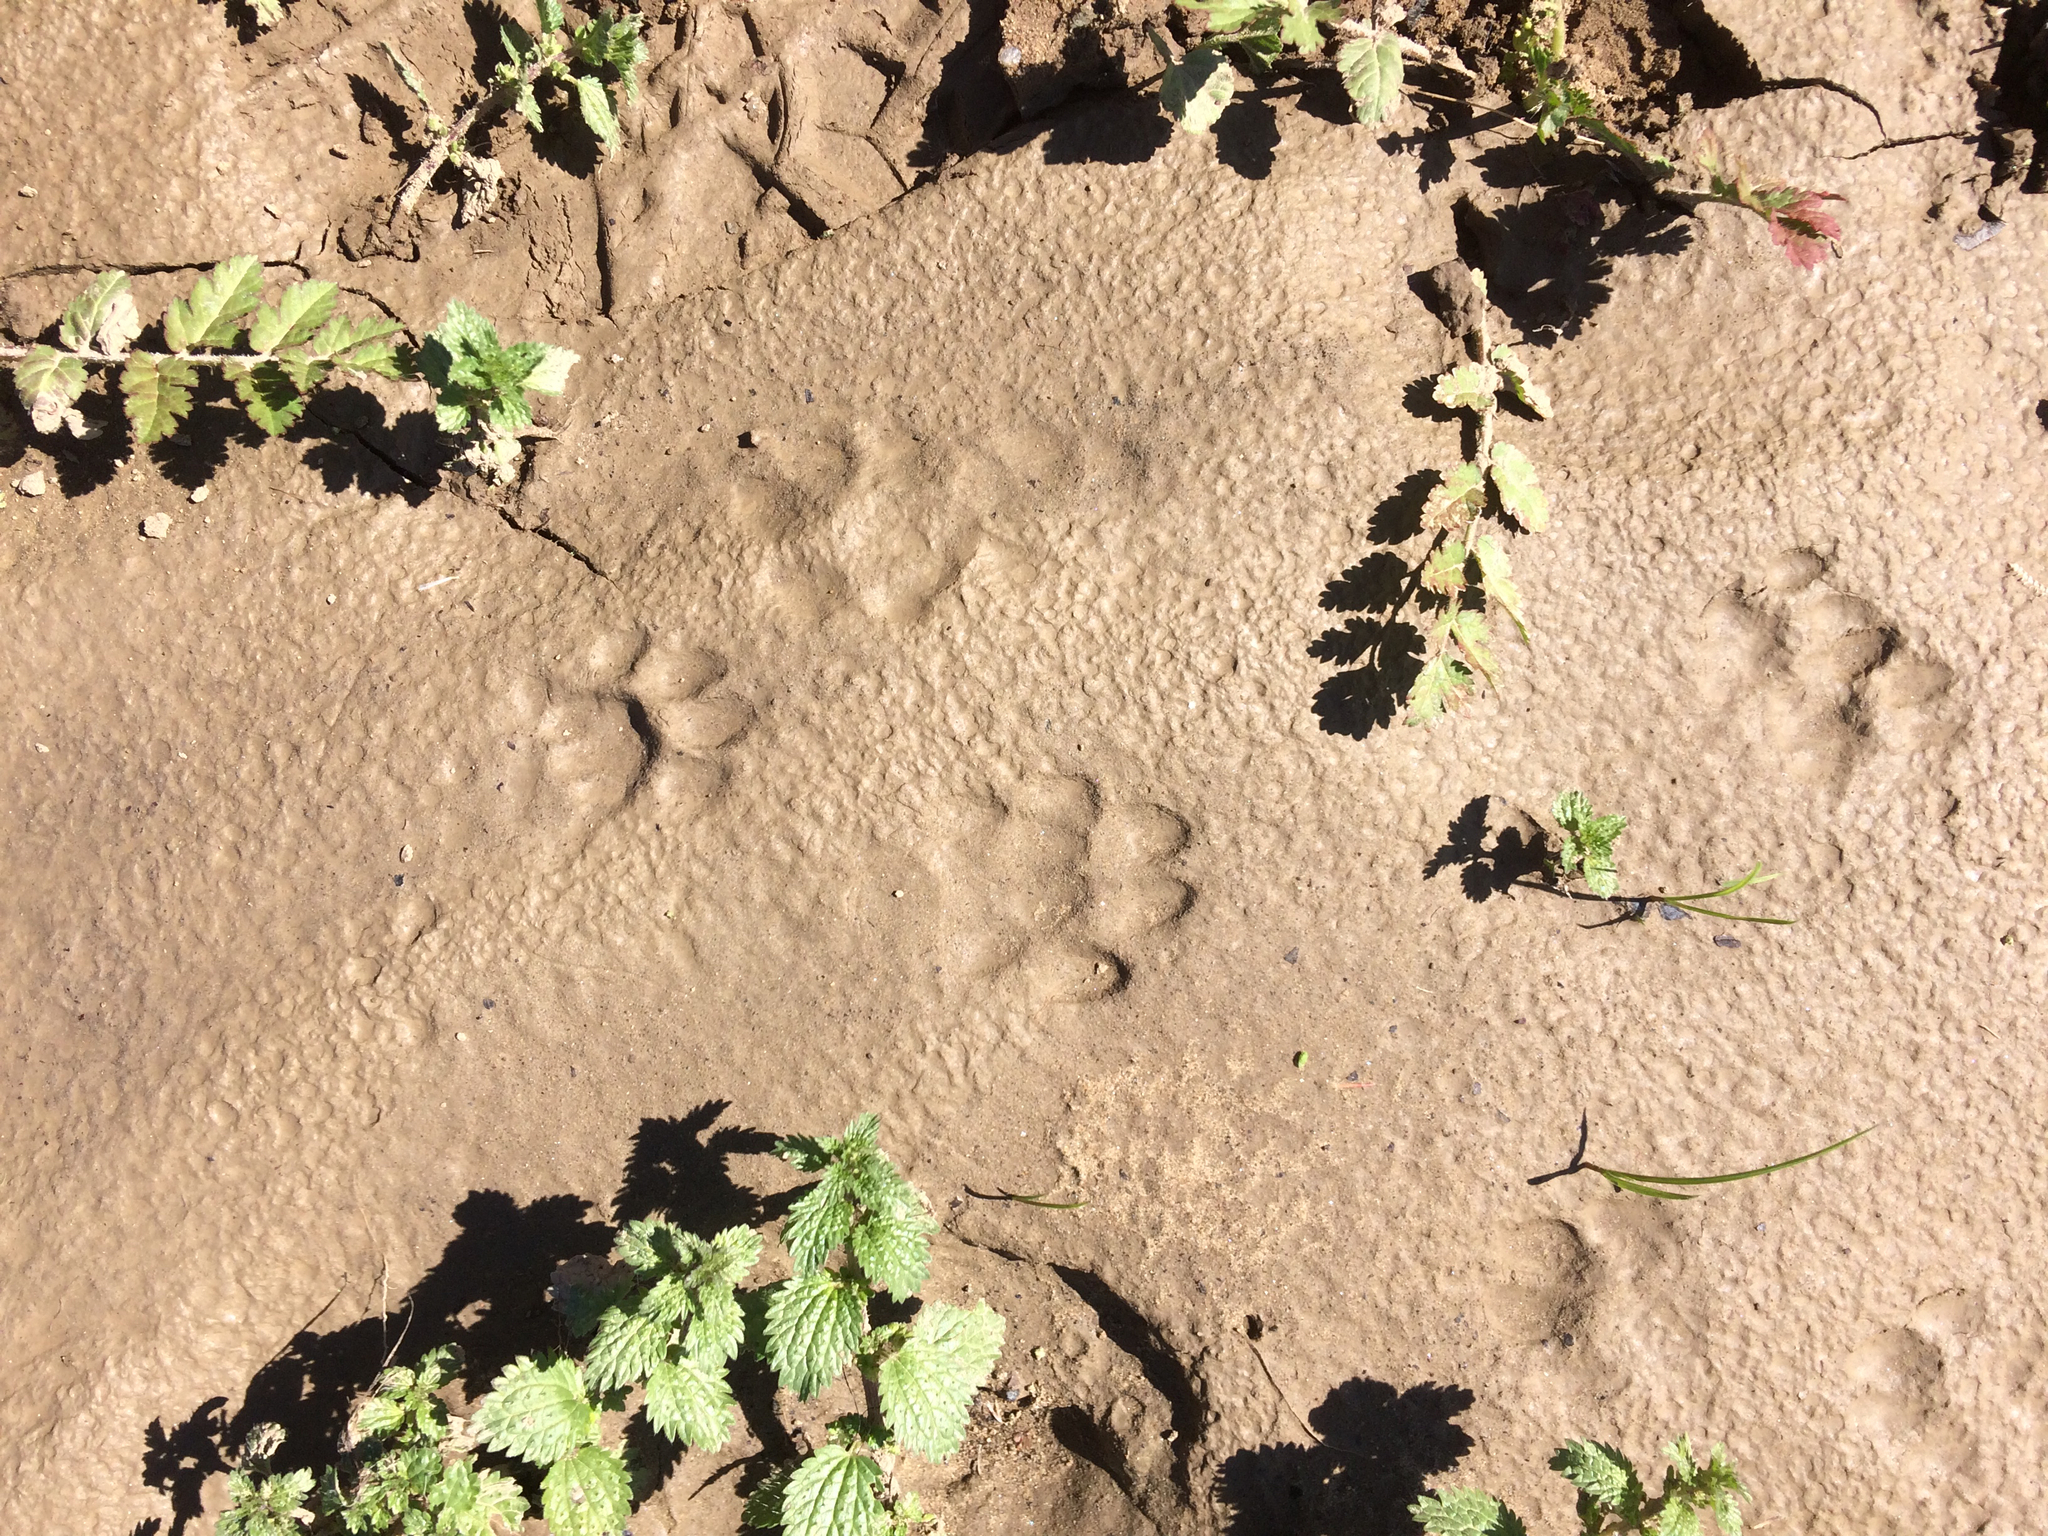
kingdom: Animalia
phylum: Chordata
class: Mammalia
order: Carnivora
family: Canidae
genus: Urocyon
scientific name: Urocyon cinereoargenteus
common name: Gray fox
